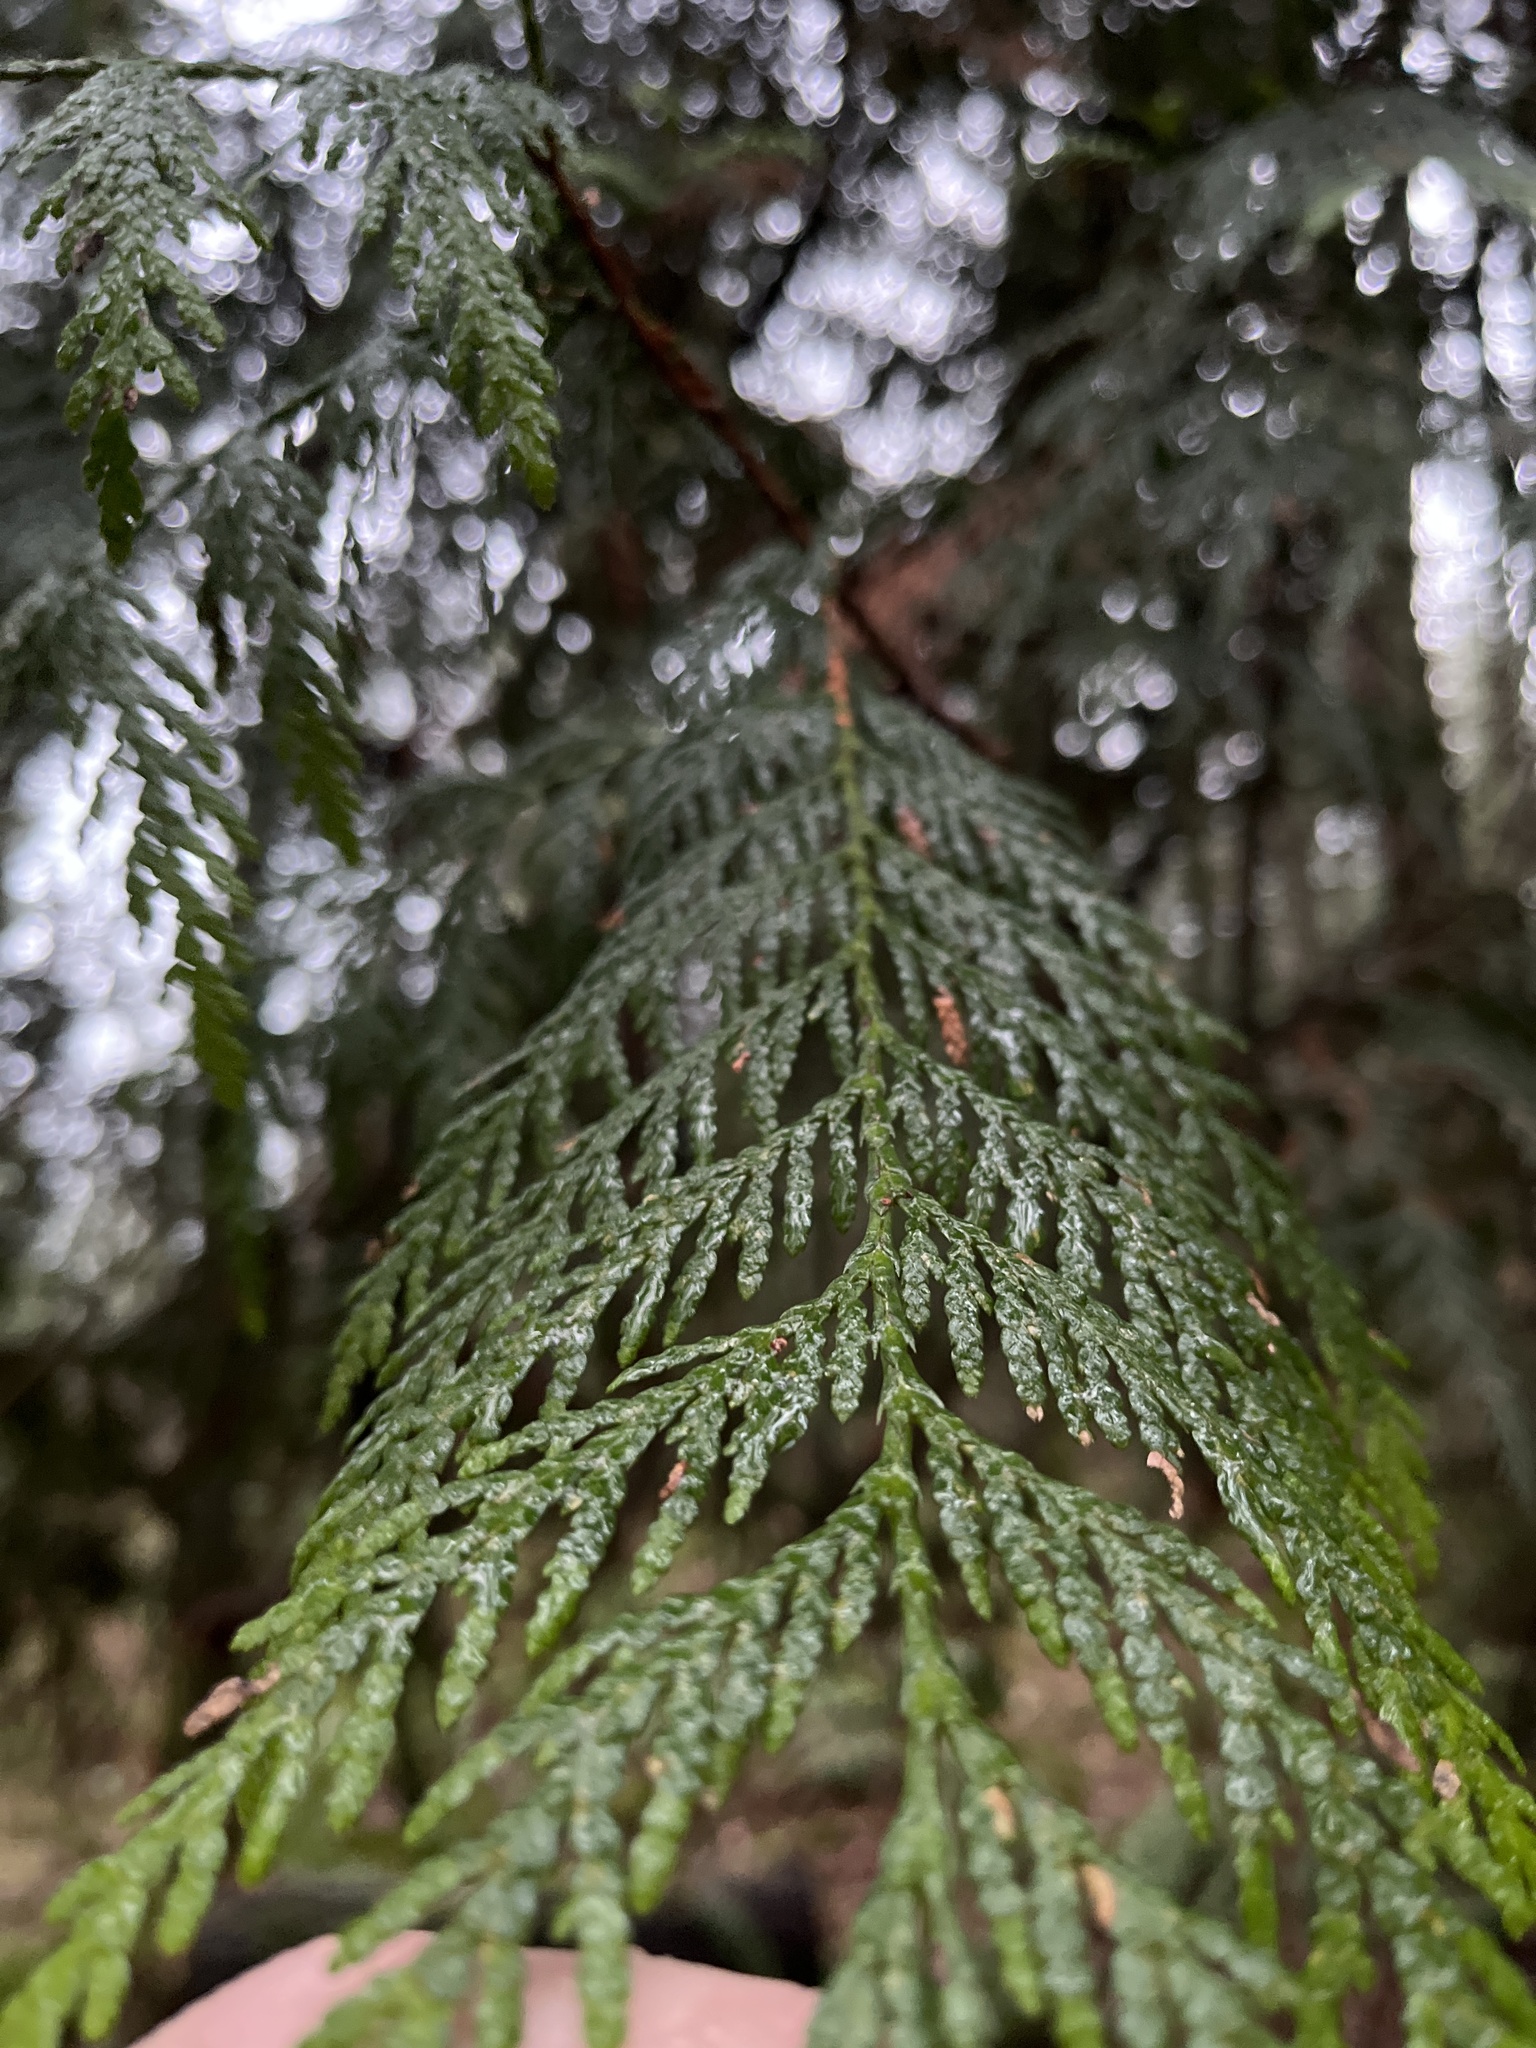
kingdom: Plantae
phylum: Tracheophyta
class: Pinopsida
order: Pinales
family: Cupressaceae
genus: Thuja
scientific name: Thuja plicata
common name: Western red-cedar
